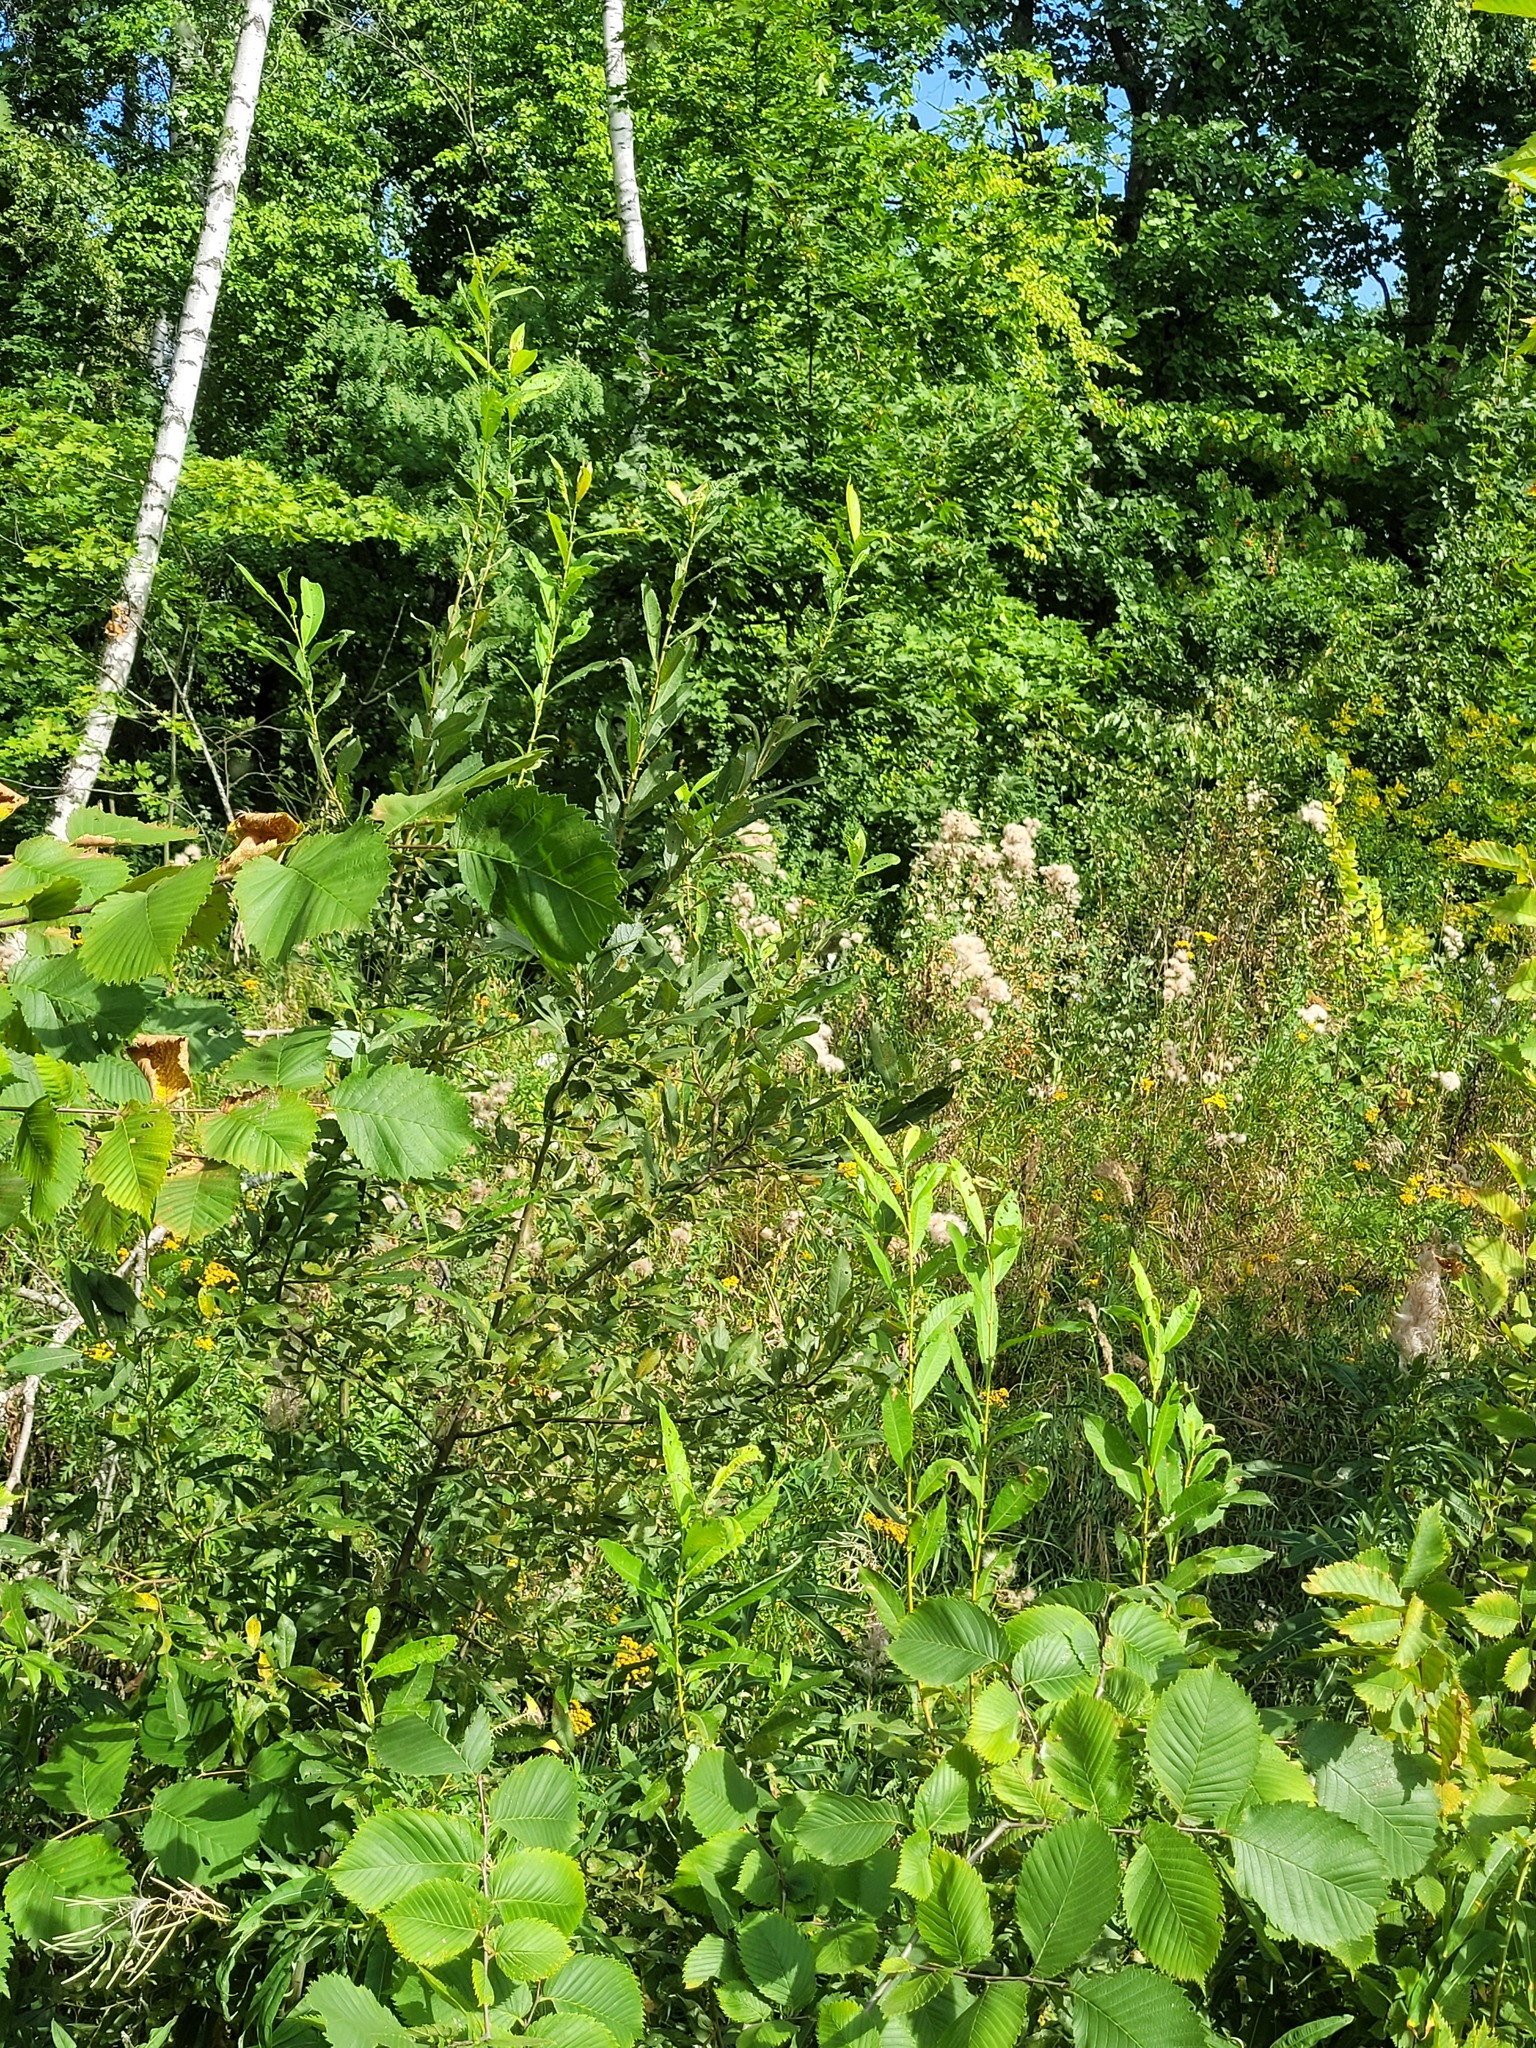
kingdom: Plantae
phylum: Tracheophyta
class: Magnoliopsida
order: Malpighiales
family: Salicaceae
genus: Salix
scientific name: Salix cinerea
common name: Common sallow
